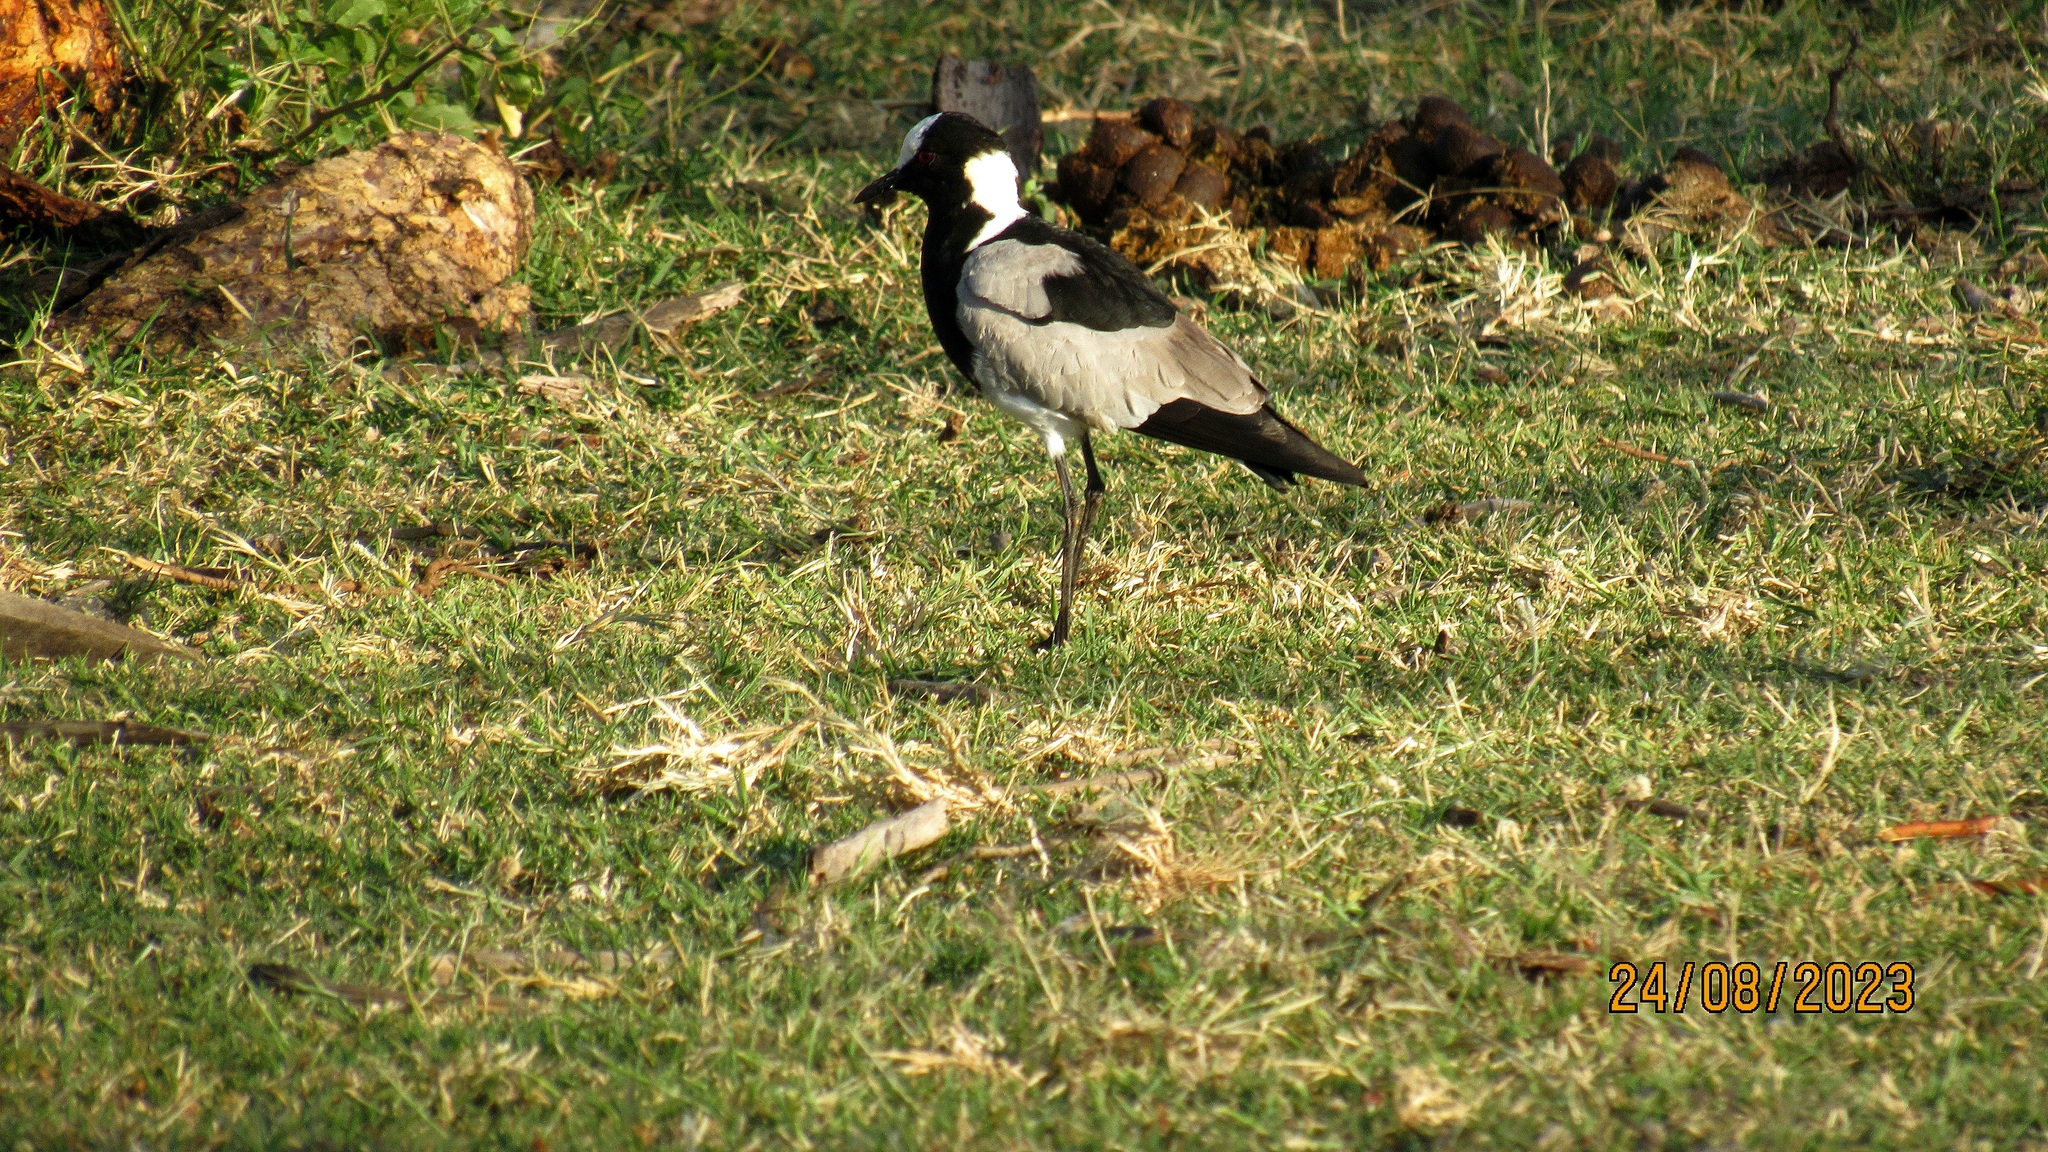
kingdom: Animalia
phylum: Chordata
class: Aves
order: Charadriiformes
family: Charadriidae
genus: Vanellus
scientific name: Vanellus armatus
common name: Blacksmith lapwing
